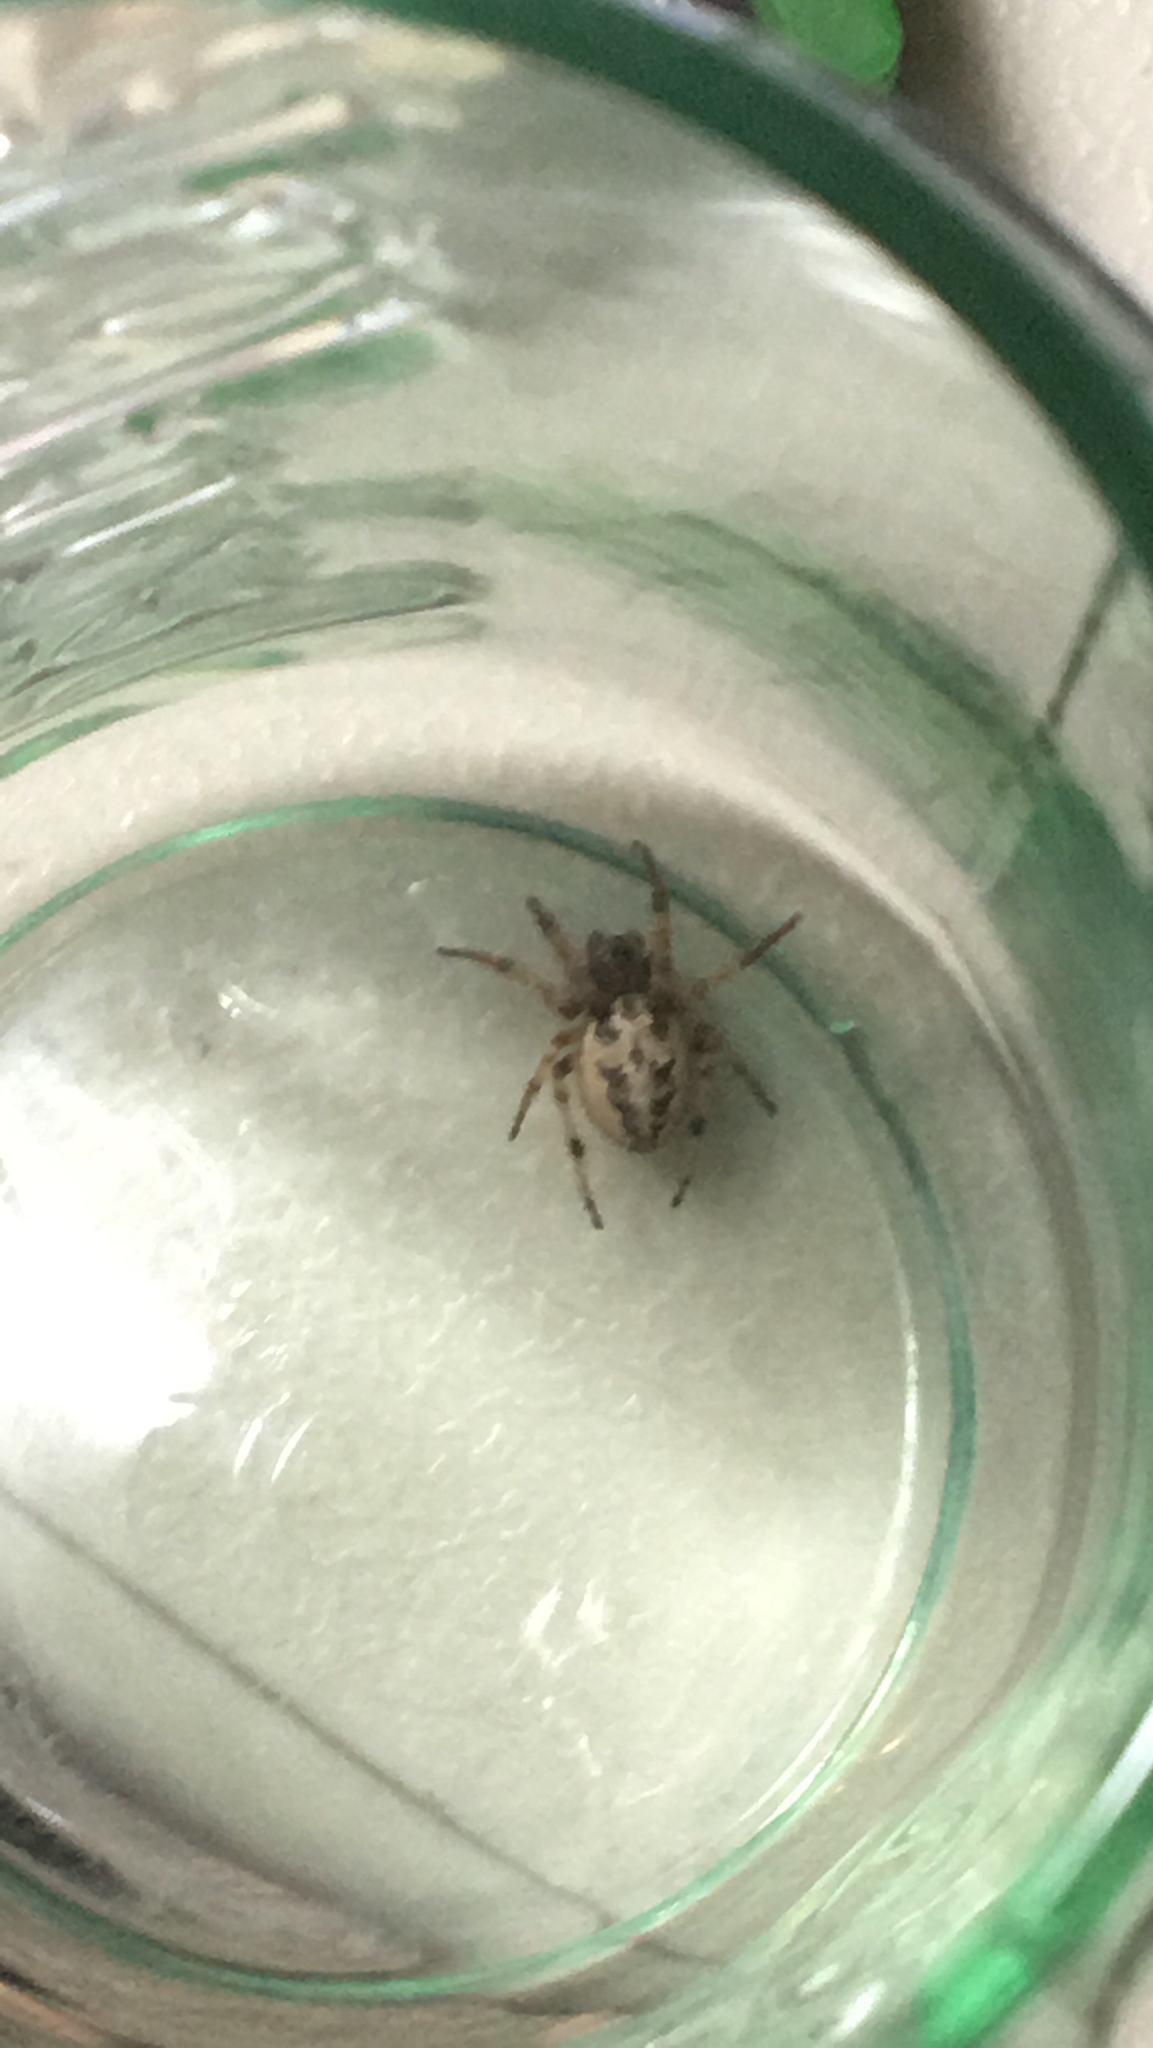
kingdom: Animalia
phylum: Arthropoda
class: Arachnida
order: Araneae
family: Araneidae
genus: Larinioides
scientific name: Larinioides cornutus
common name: Furrow orbweaver
